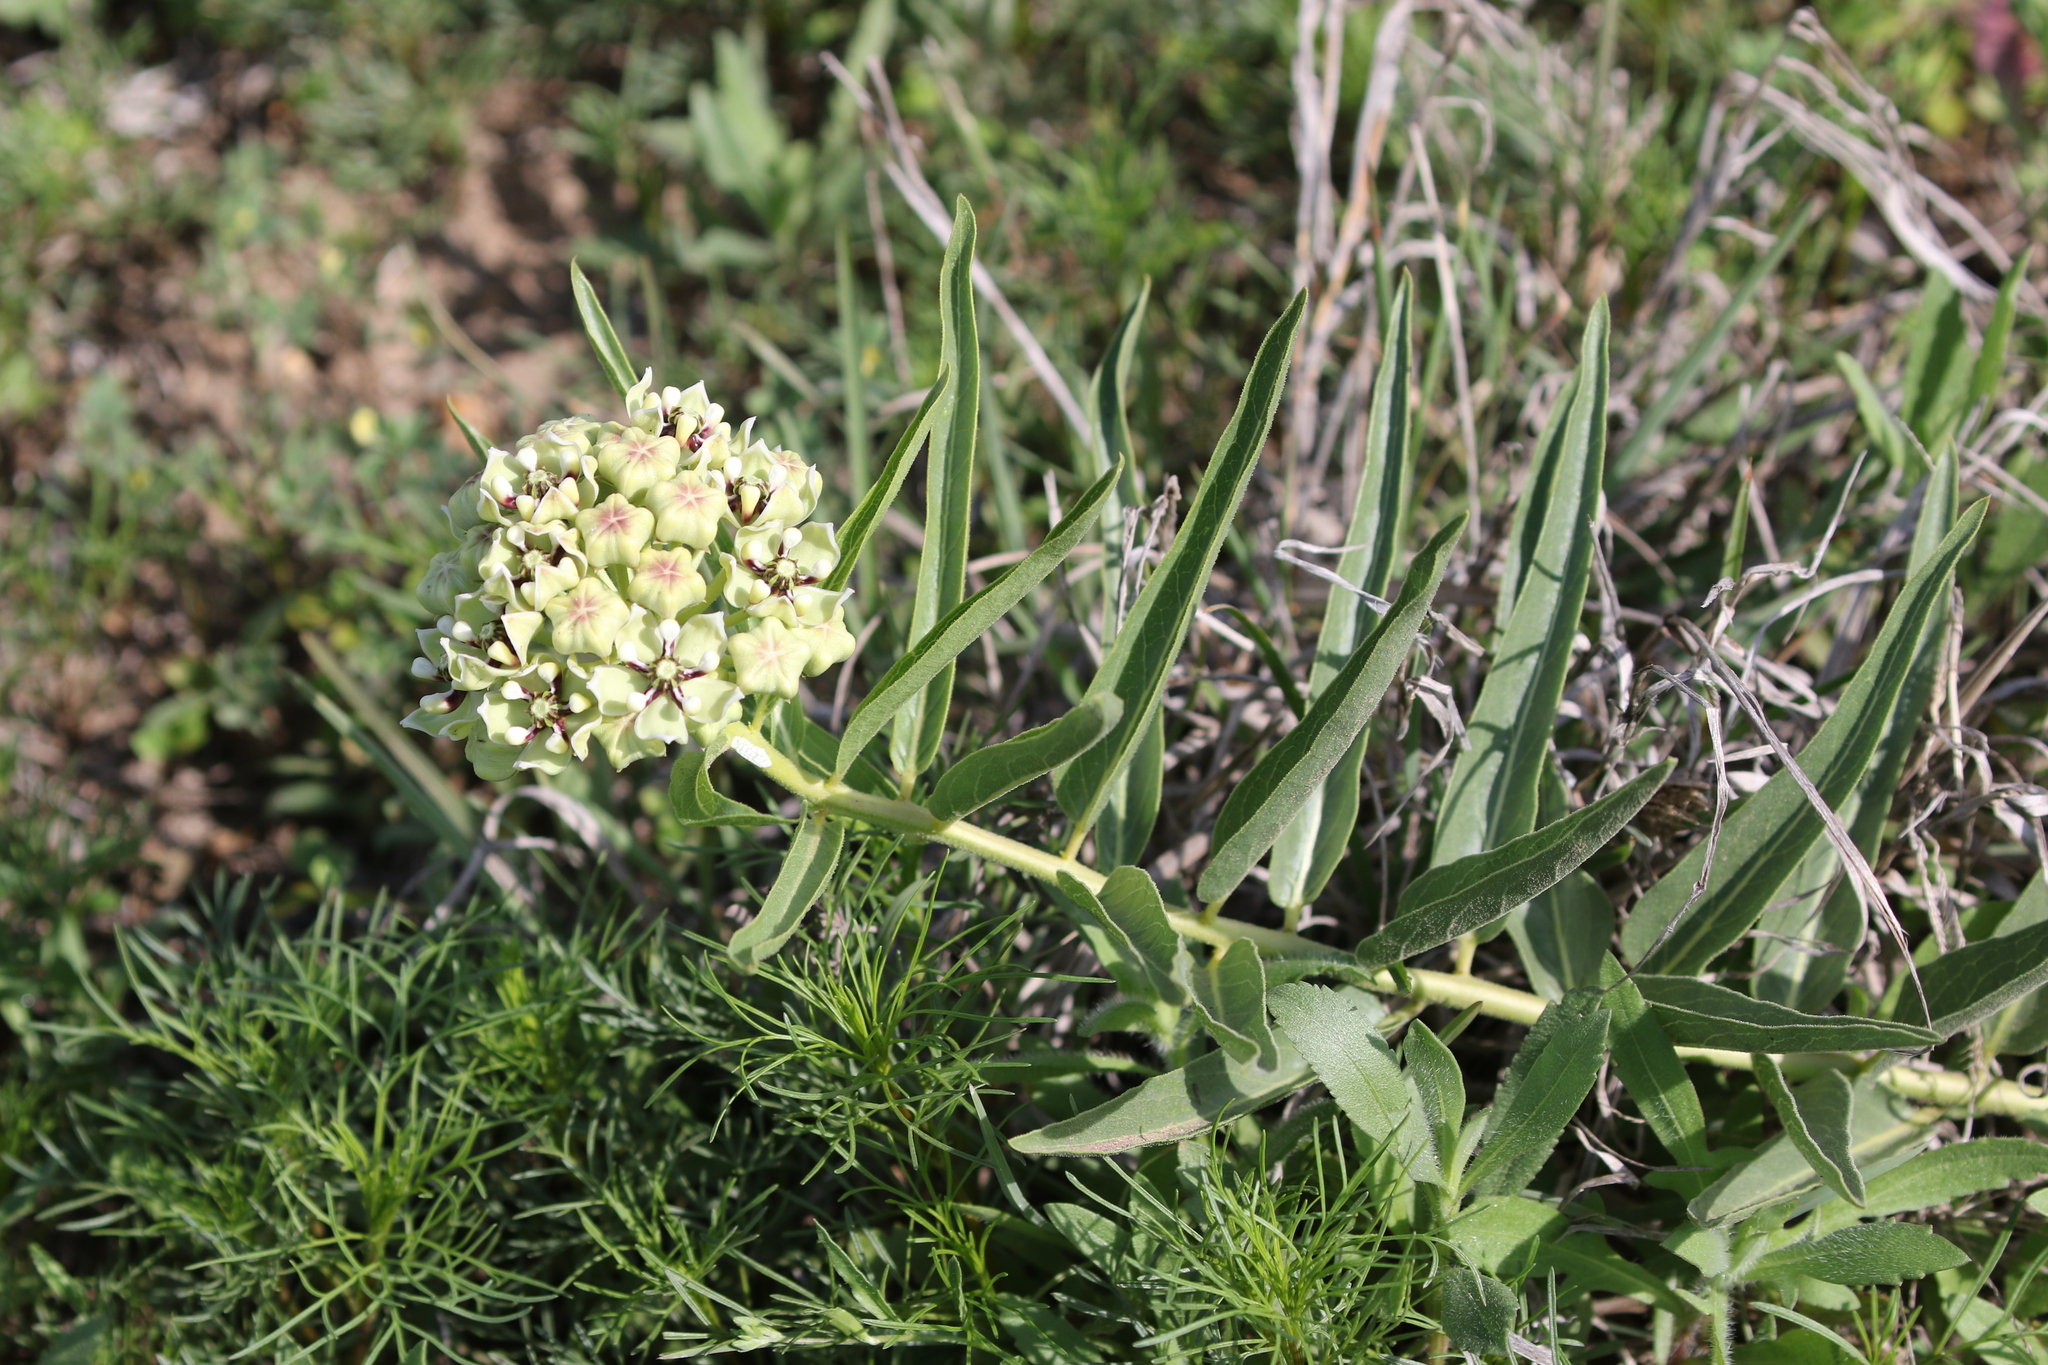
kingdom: Plantae
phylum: Tracheophyta
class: Magnoliopsida
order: Gentianales
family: Apocynaceae
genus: Asclepias
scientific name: Asclepias asperula
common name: Antelope horns
